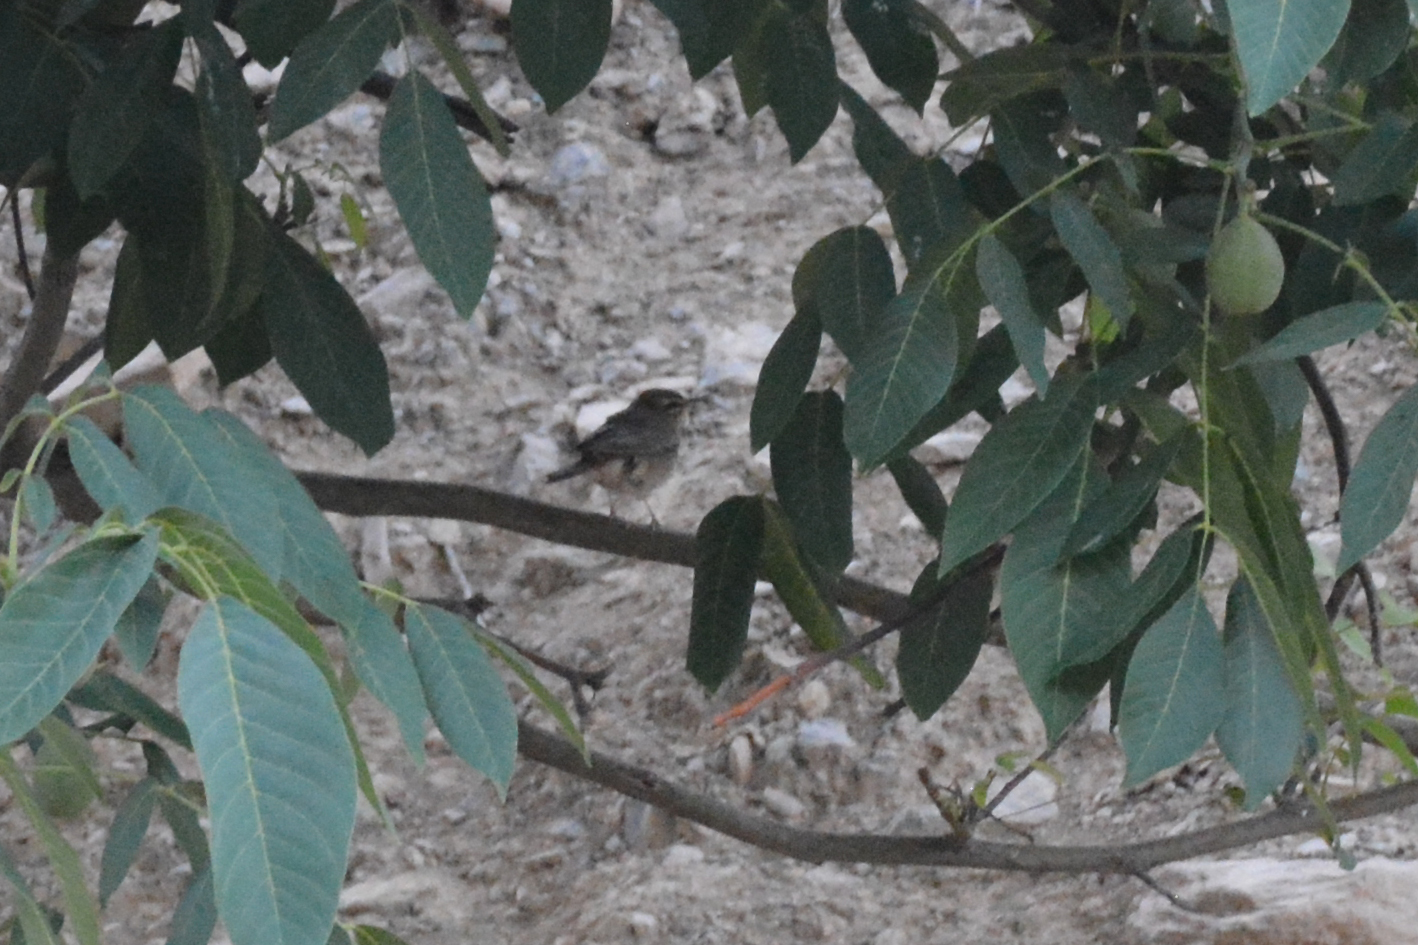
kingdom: Animalia
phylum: Chordata
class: Aves
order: Passeriformes
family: Muscicapidae
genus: Erythropygia
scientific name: Erythropygia galactotes
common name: Rufous-tailed scrub robin
